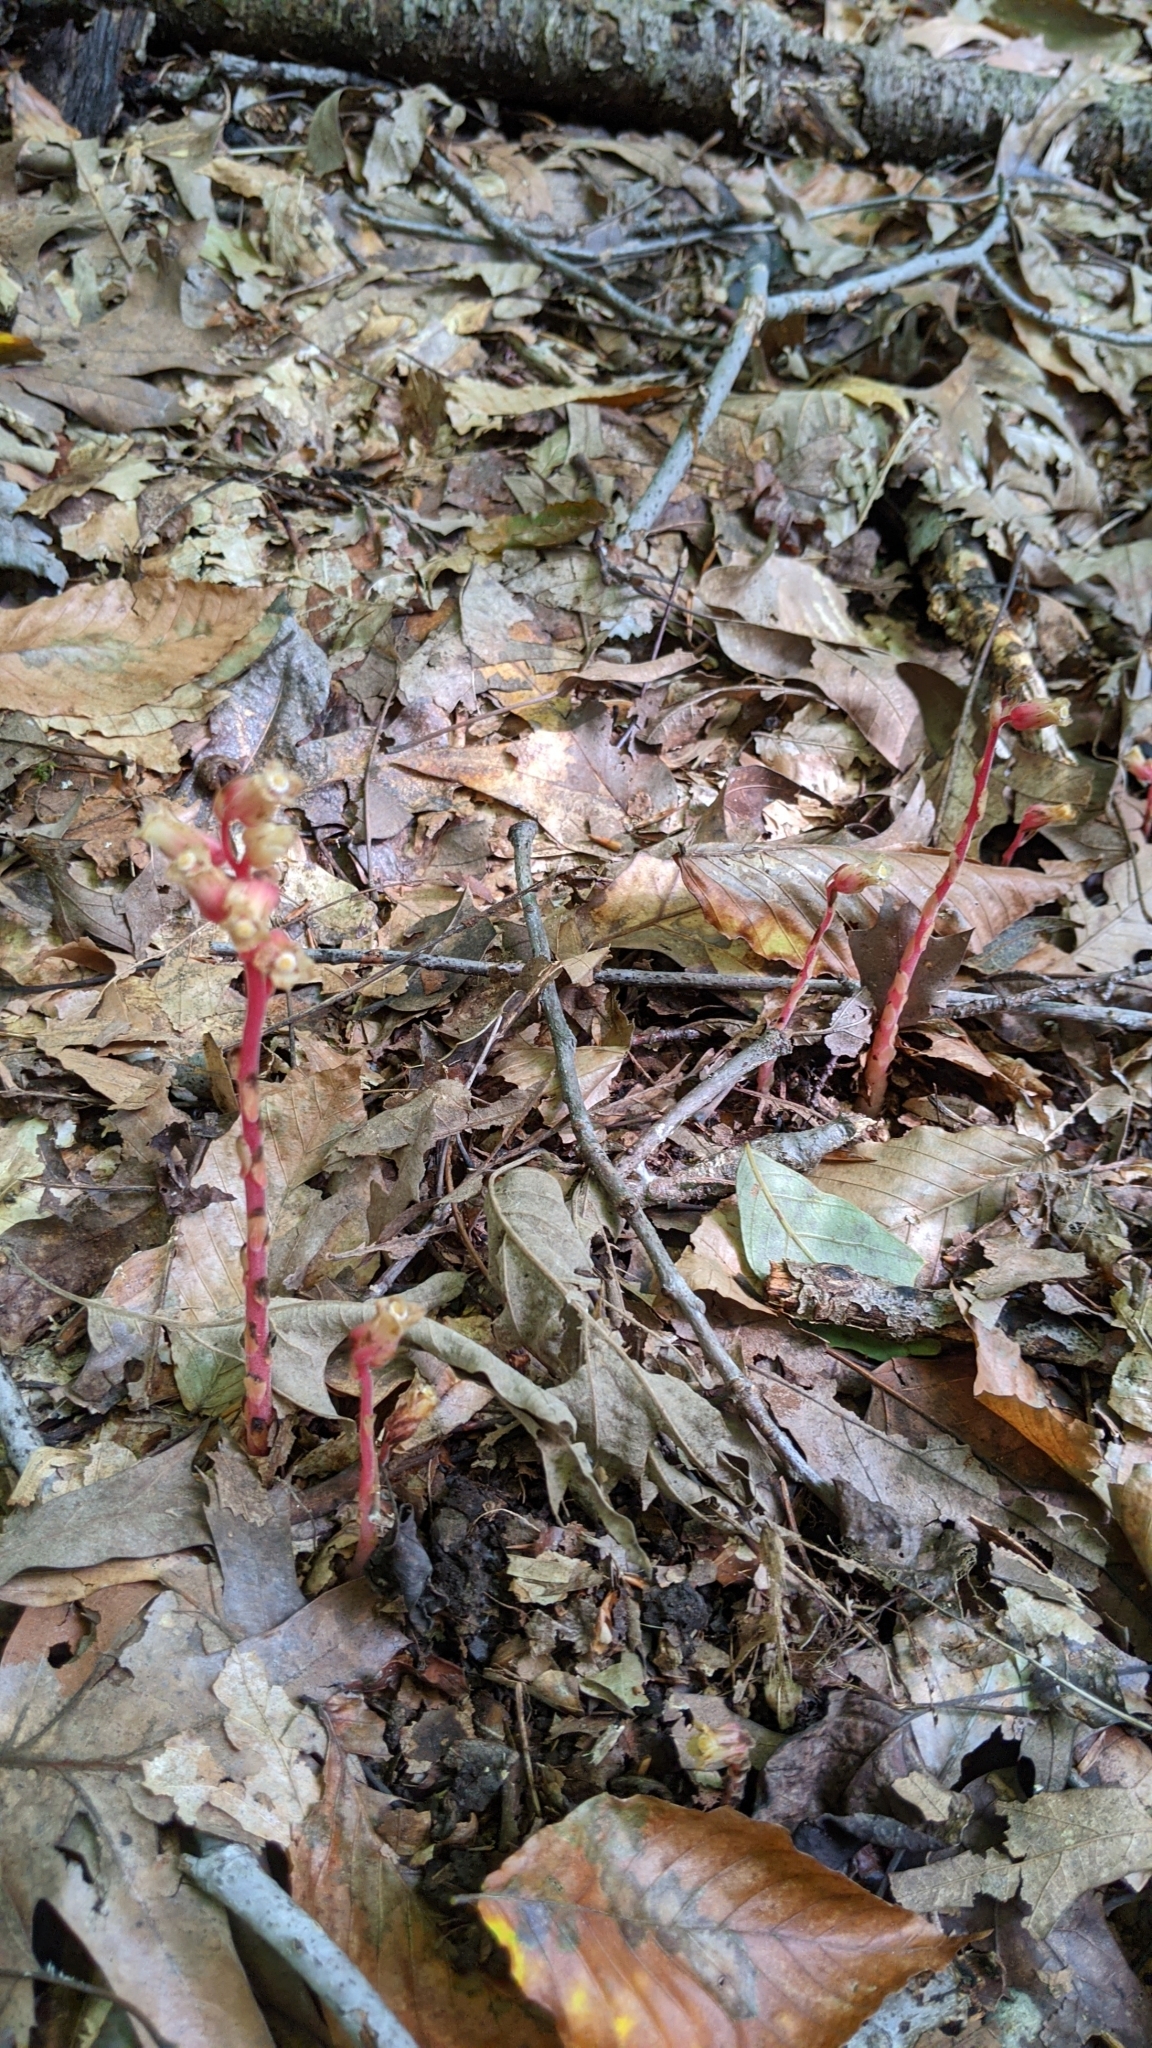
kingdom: Plantae
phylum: Tracheophyta
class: Magnoliopsida
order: Ericales
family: Ericaceae
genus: Hypopitys
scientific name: Hypopitys monotropa
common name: Yellow bird's-nest
